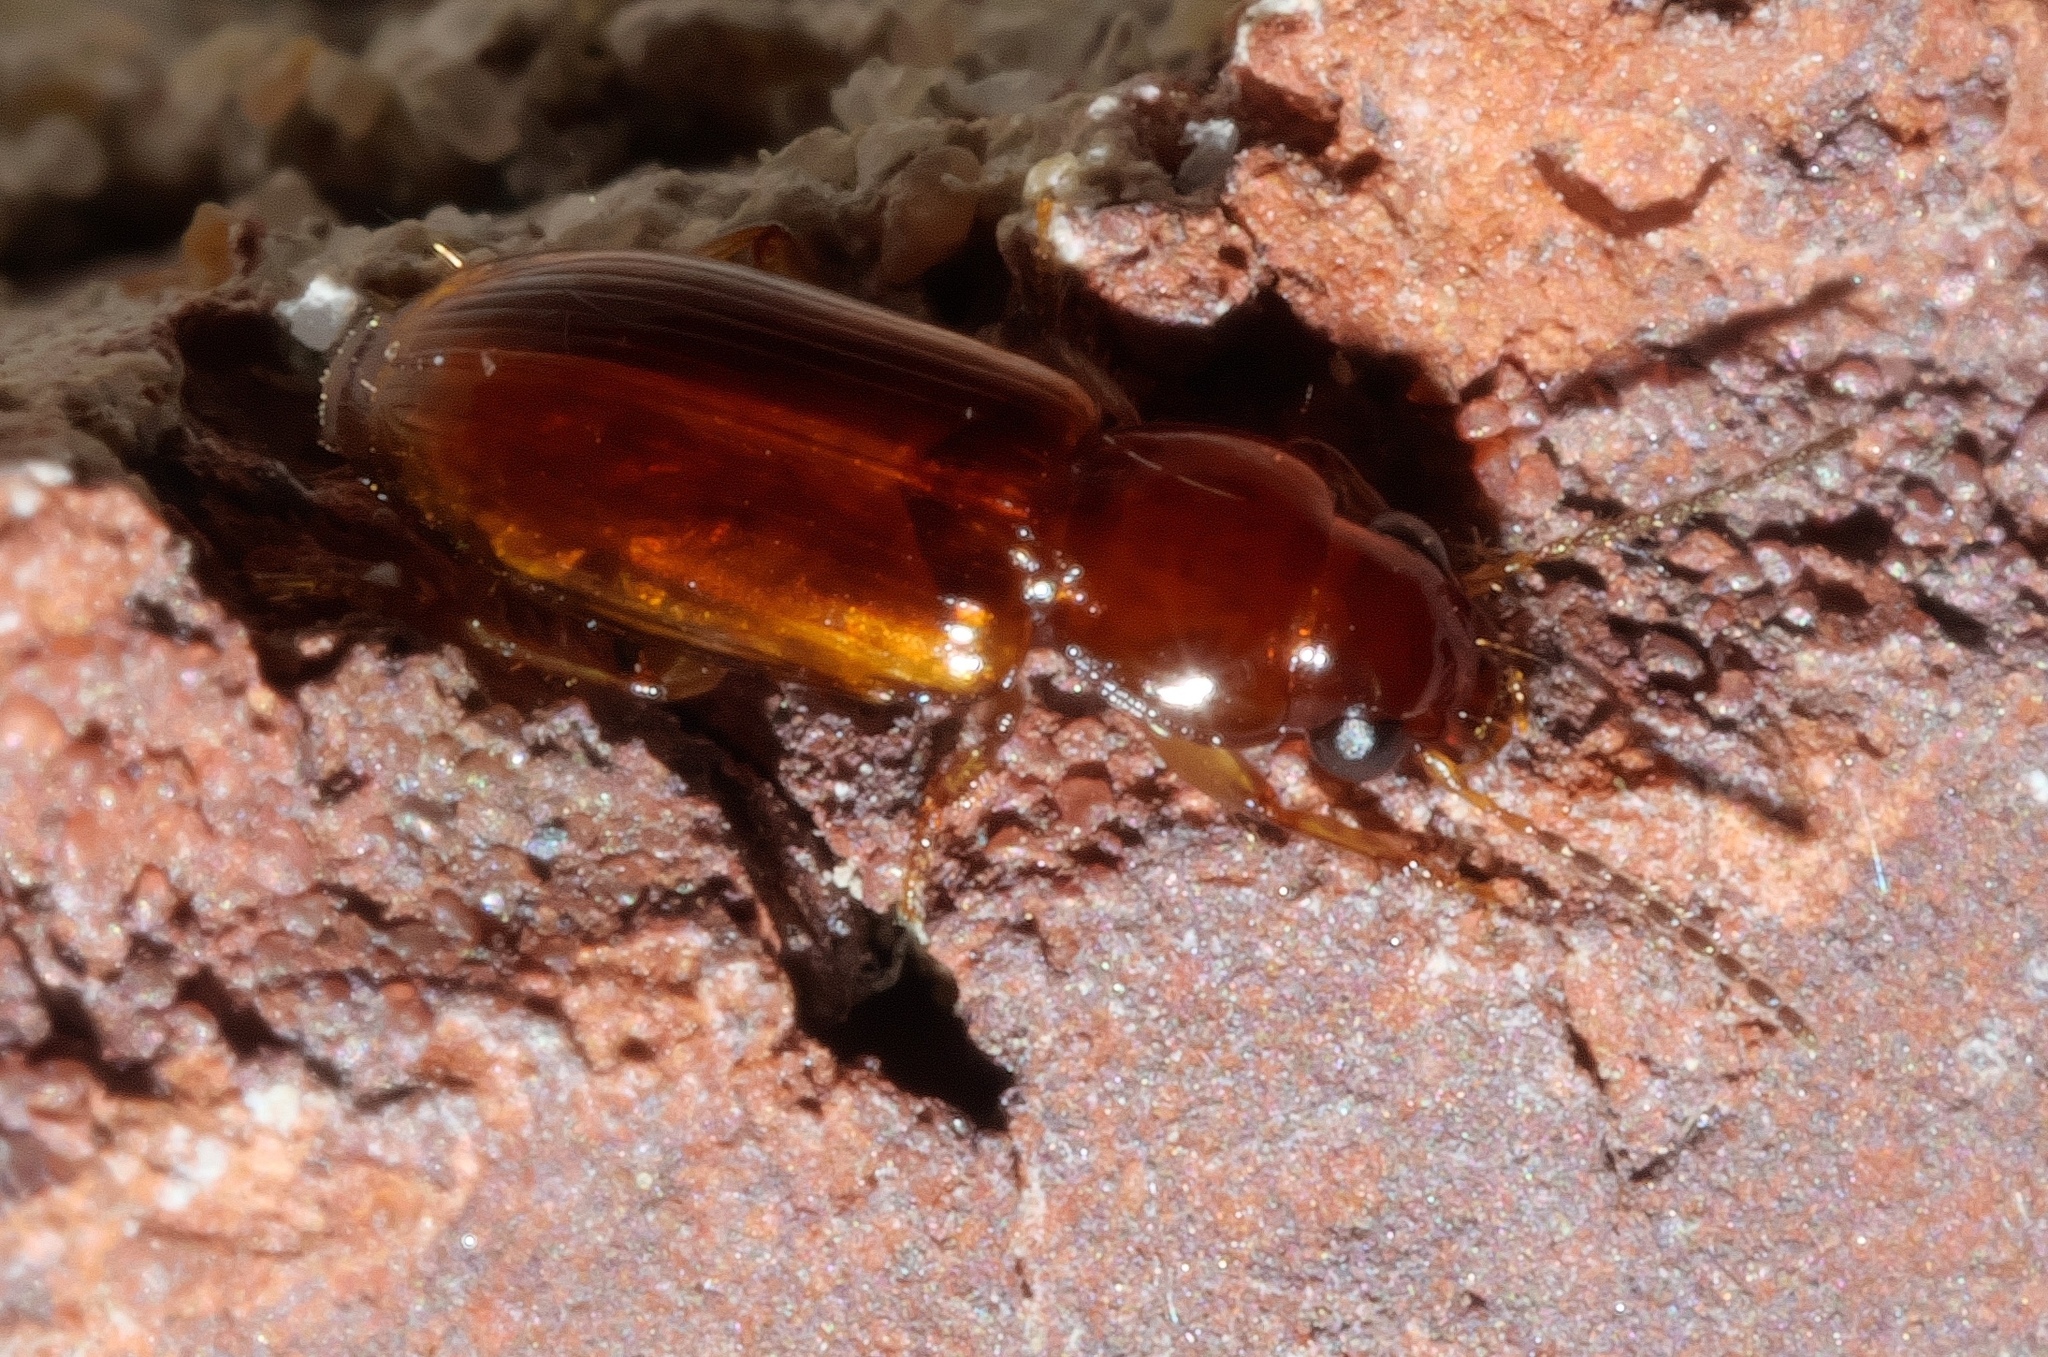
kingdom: Animalia
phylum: Arthropoda
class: Insecta
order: Coleoptera
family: Carabidae
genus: Acupalpus
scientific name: Acupalpus testaceus
